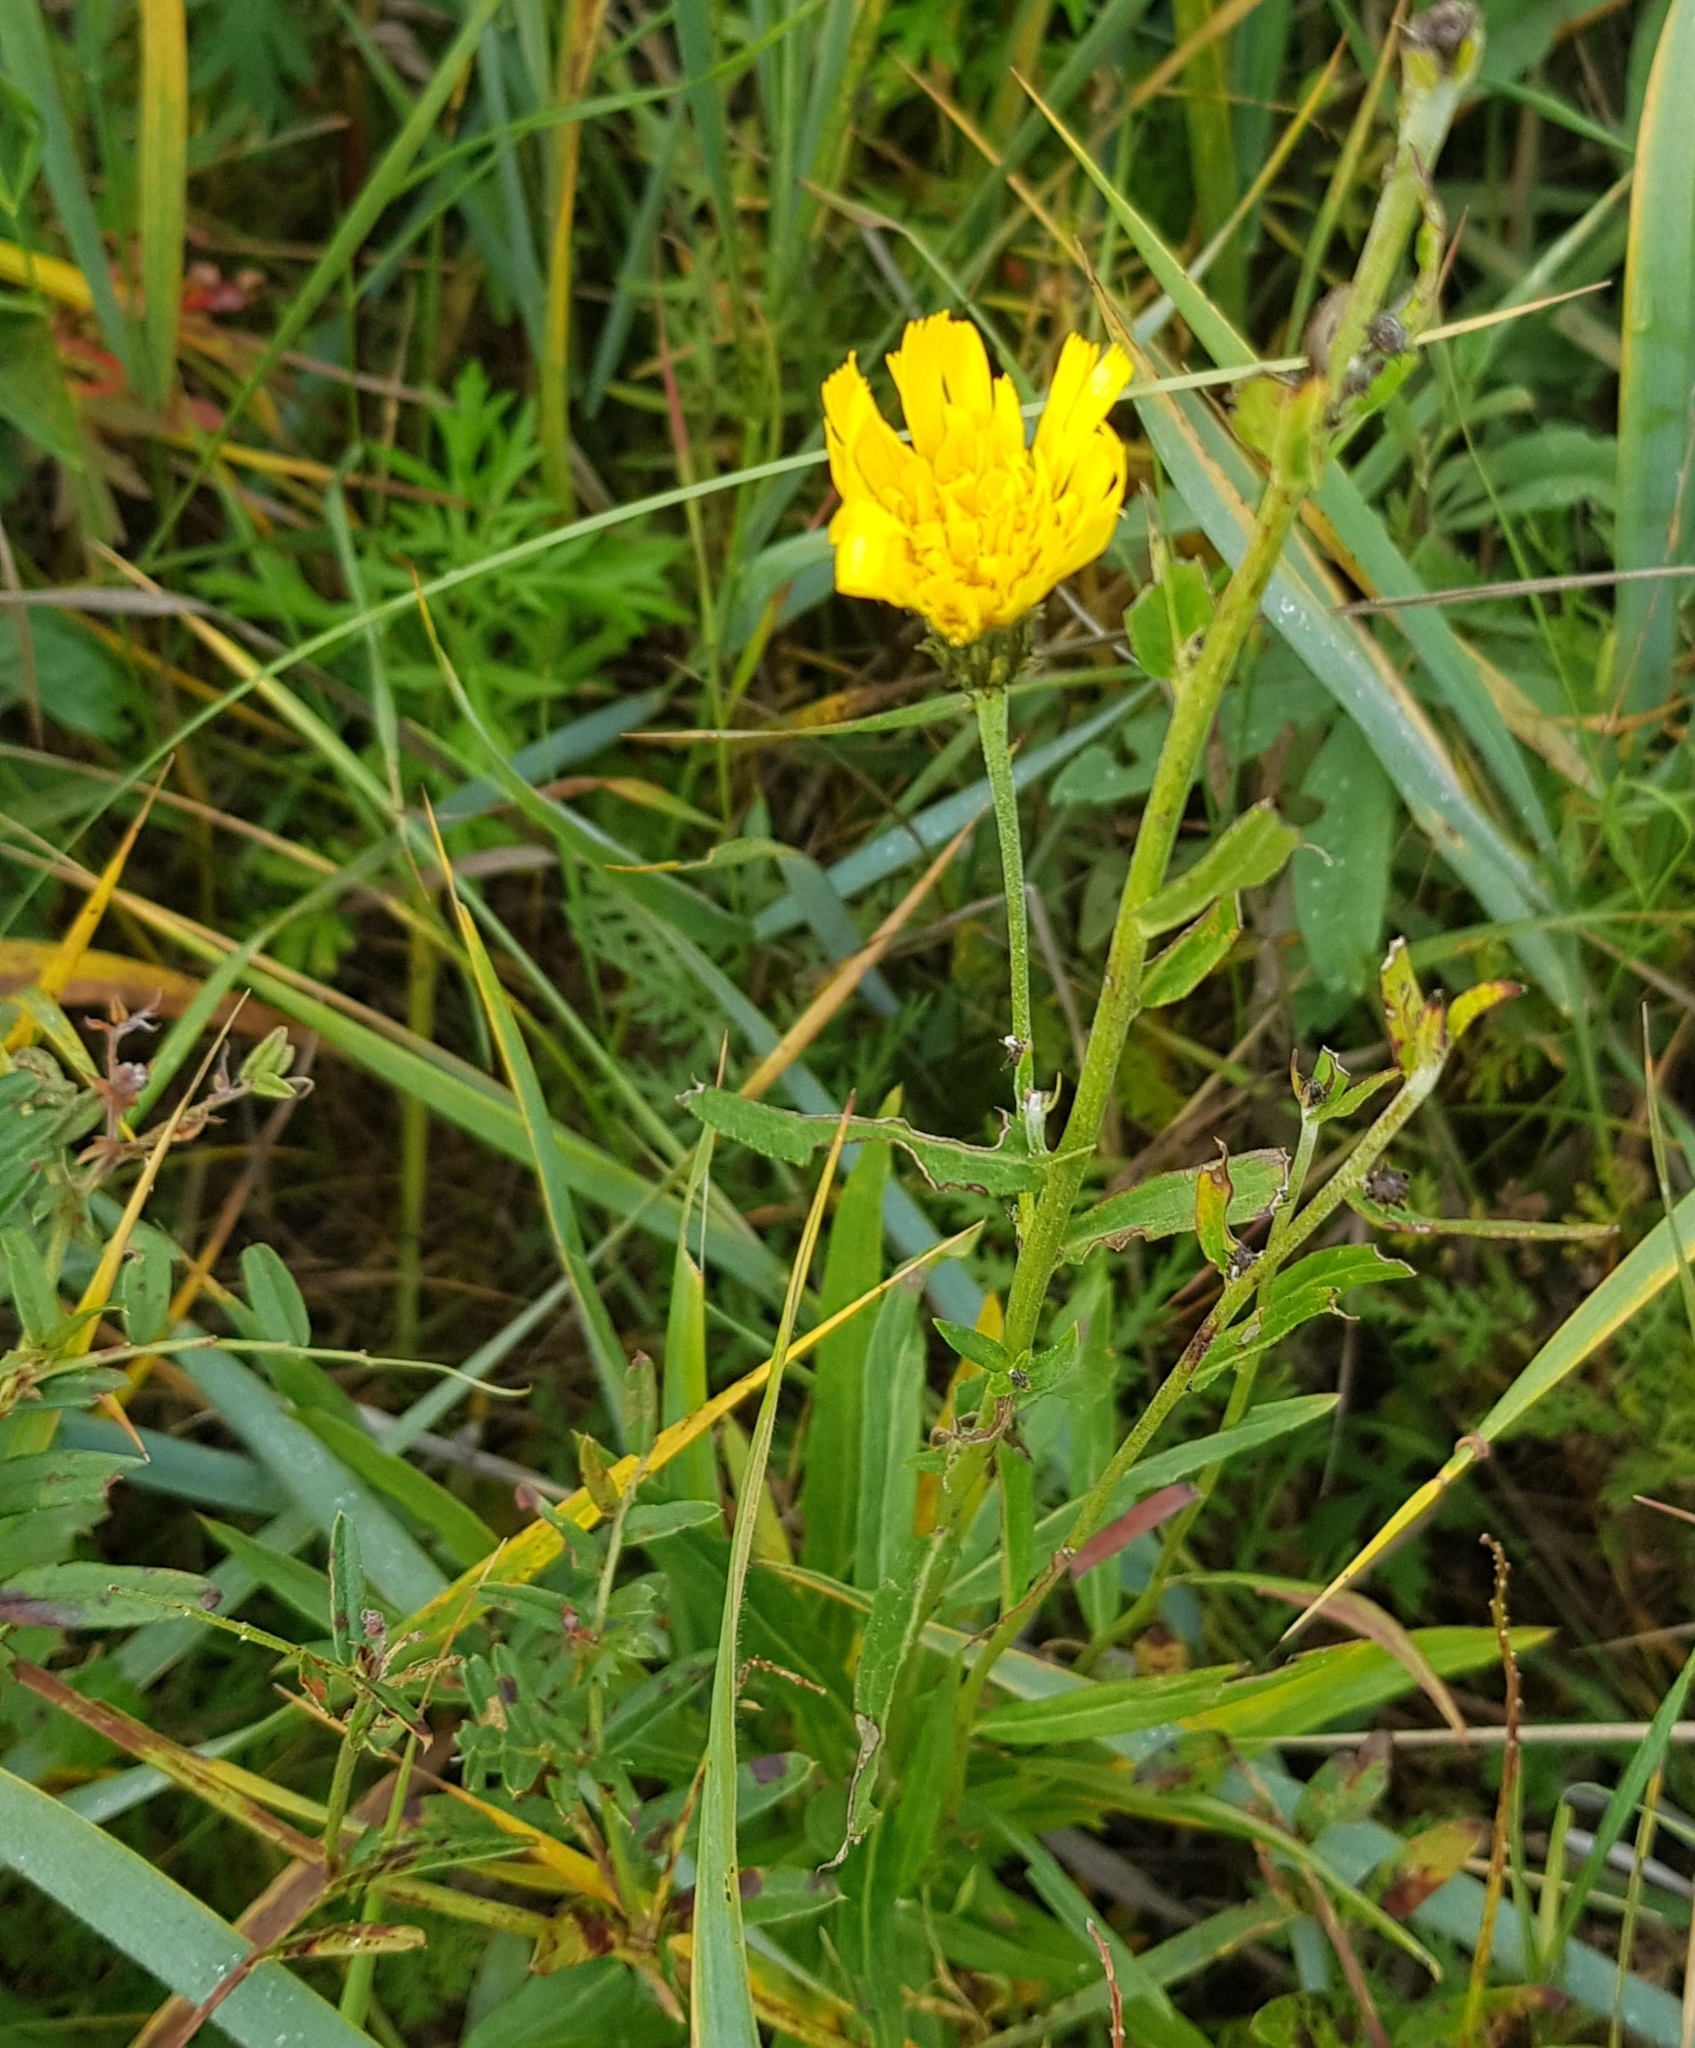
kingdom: Plantae
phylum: Tracheophyta
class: Magnoliopsida
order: Asterales
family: Asteraceae
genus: Hieracium
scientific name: Hieracium umbellatum
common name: Northern hawkweed
